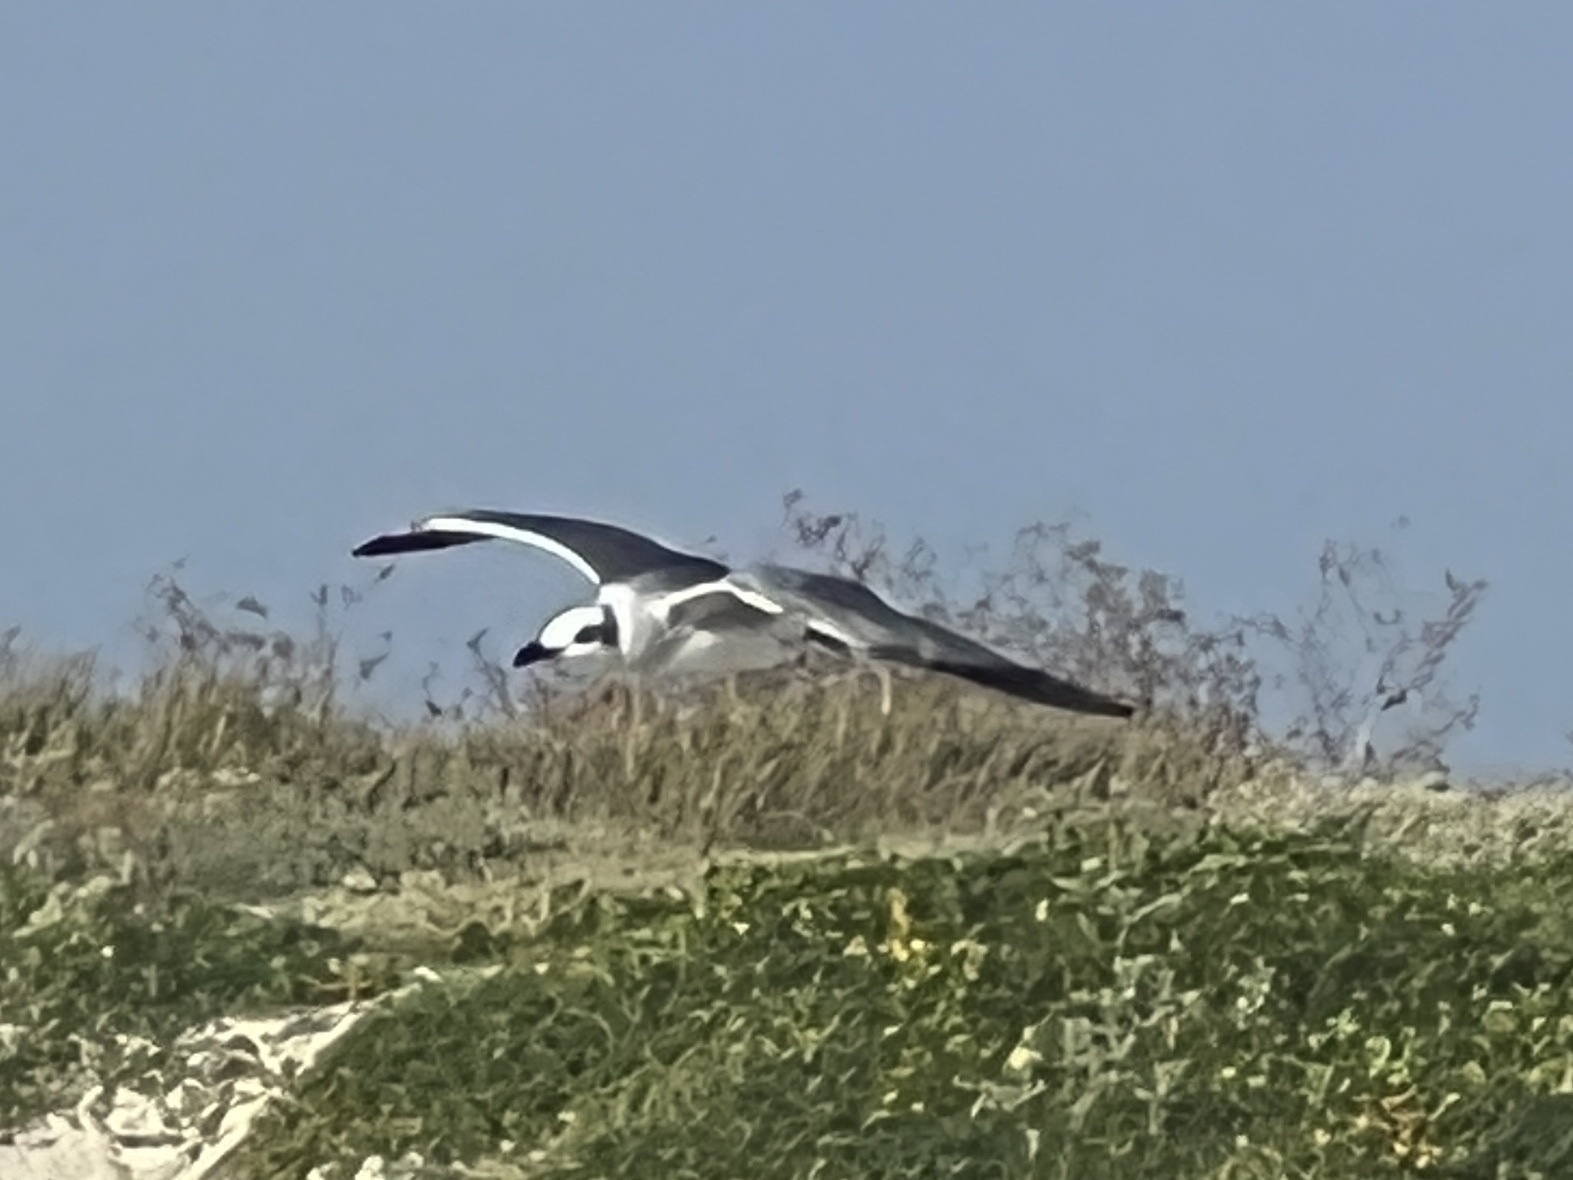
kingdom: Animalia
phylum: Chordata
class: Aves
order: Charadriiformes
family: Laridae
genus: Leucophaeus
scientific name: Leucophaeus atricilla
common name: Laughing gull
